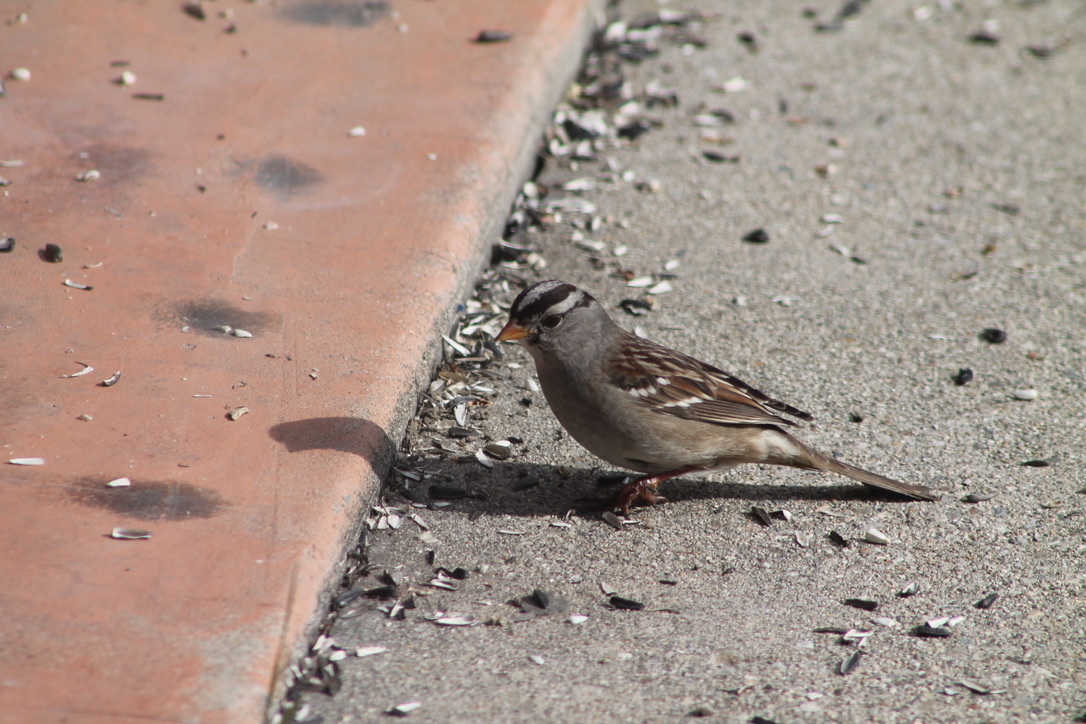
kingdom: Animalia
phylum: Chordata
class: Aves
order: Passeriformes
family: Passerellidae
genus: Zonotrichia
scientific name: Zonotrichia leucophrys
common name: White-crowned sparrow
